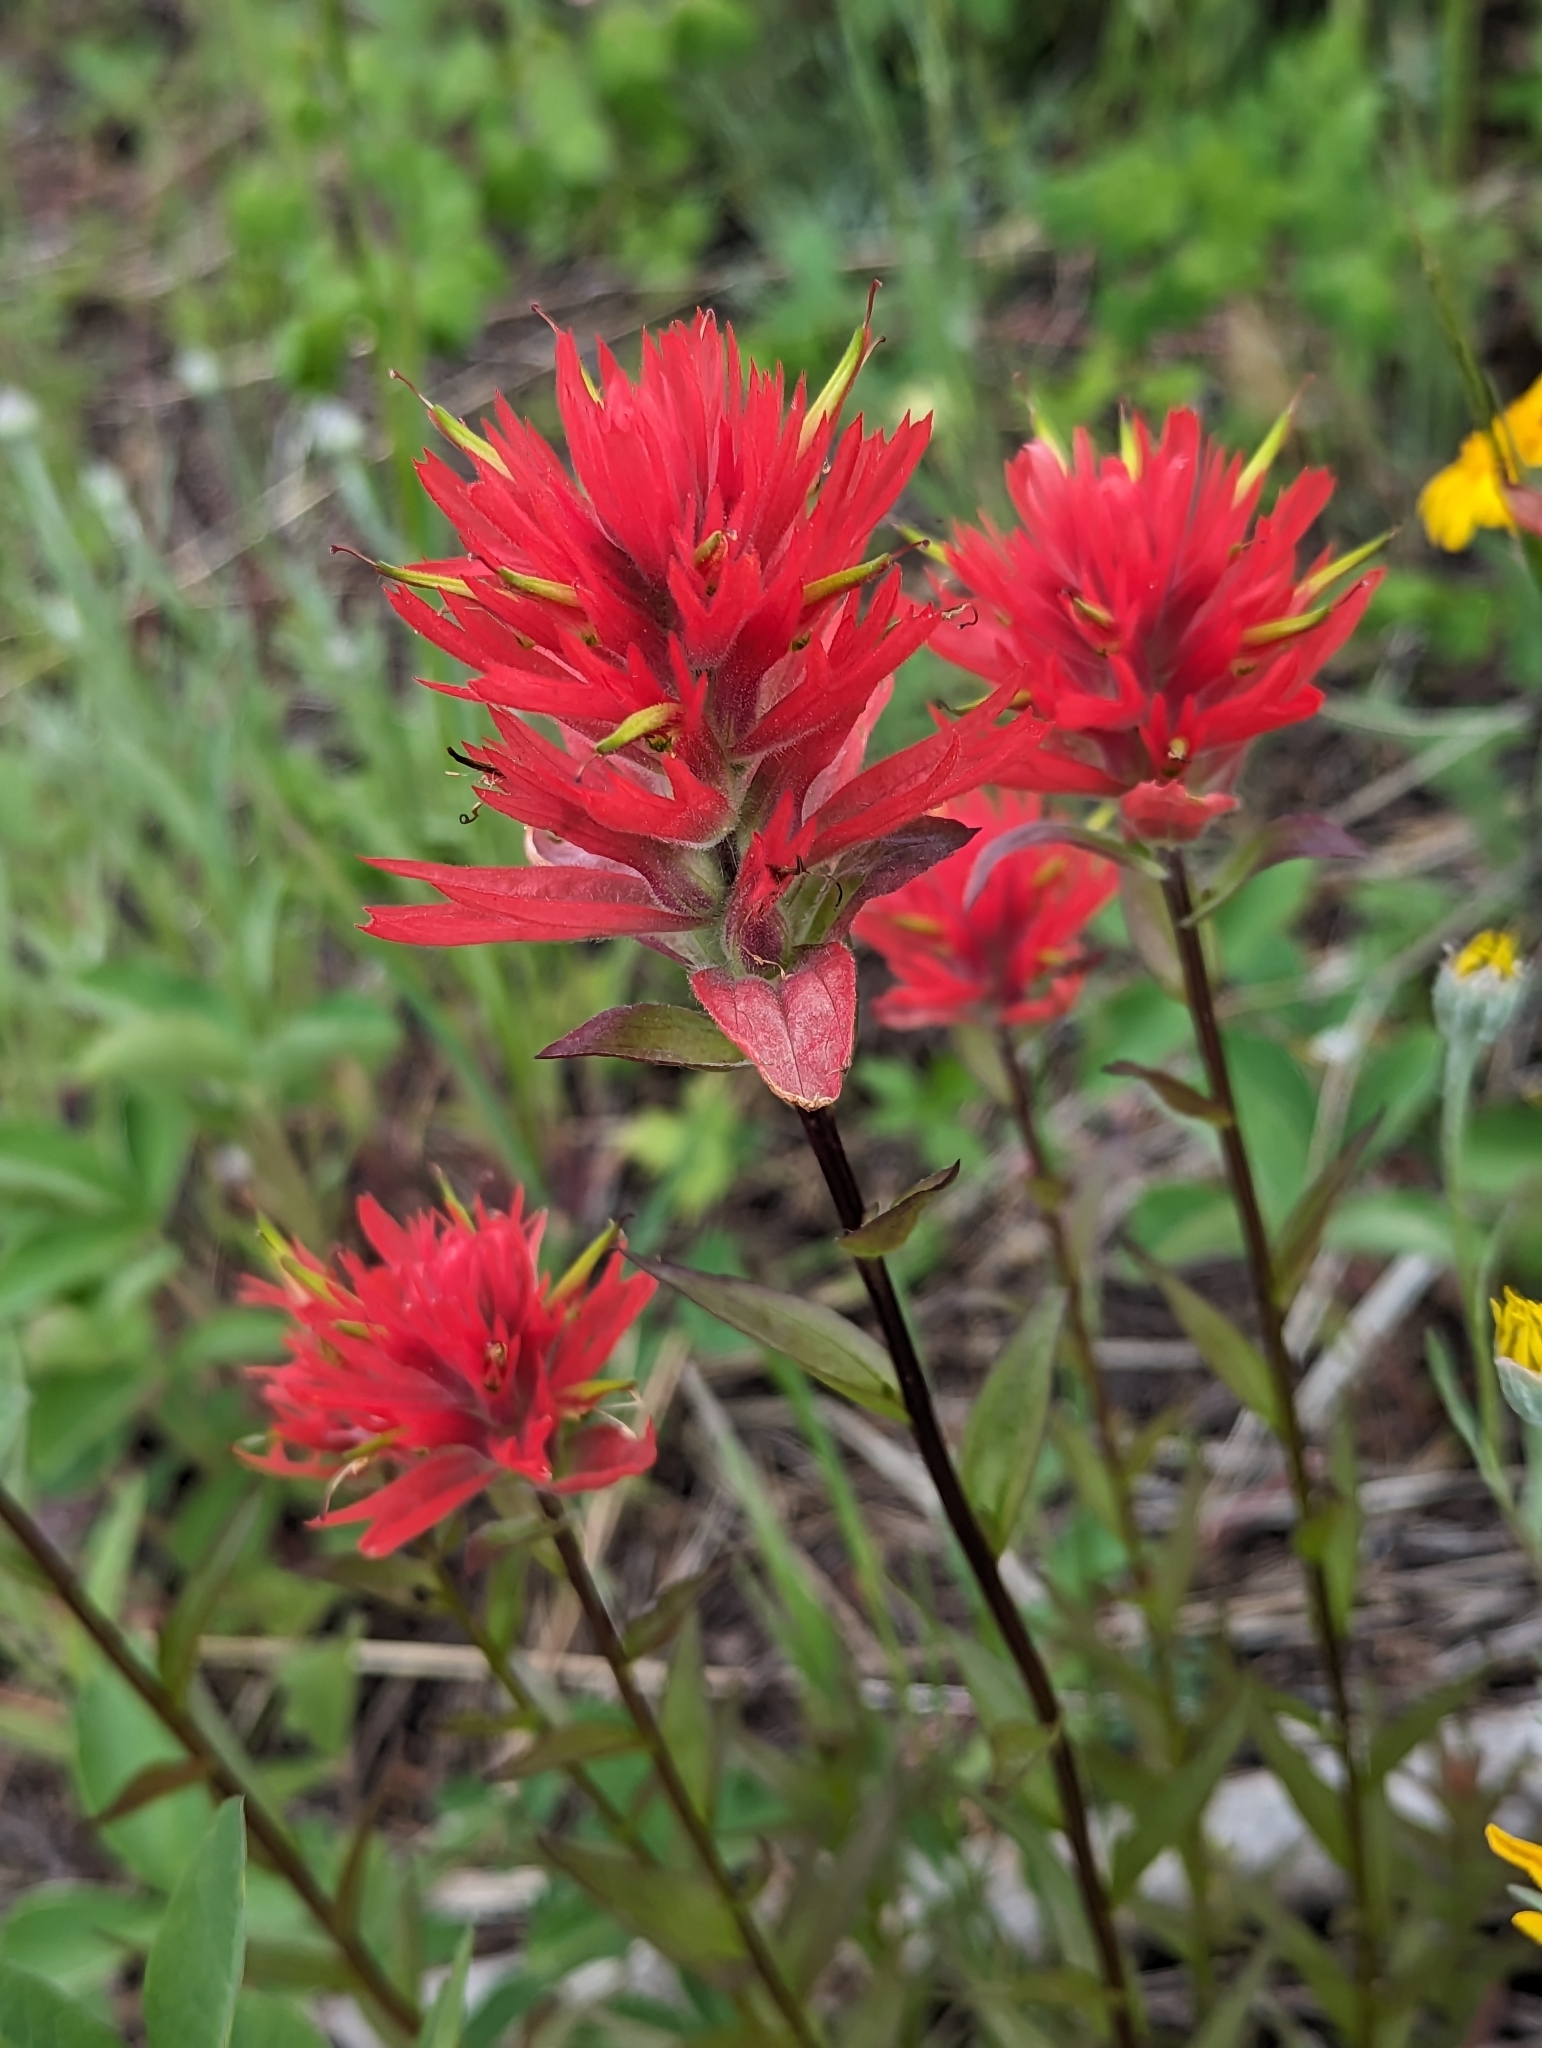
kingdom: Plantae
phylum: Tracheophyta
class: Magnoliopsida
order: Lamiales
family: Orobanchaceae
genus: Castilleja
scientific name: Castilleja miniata
